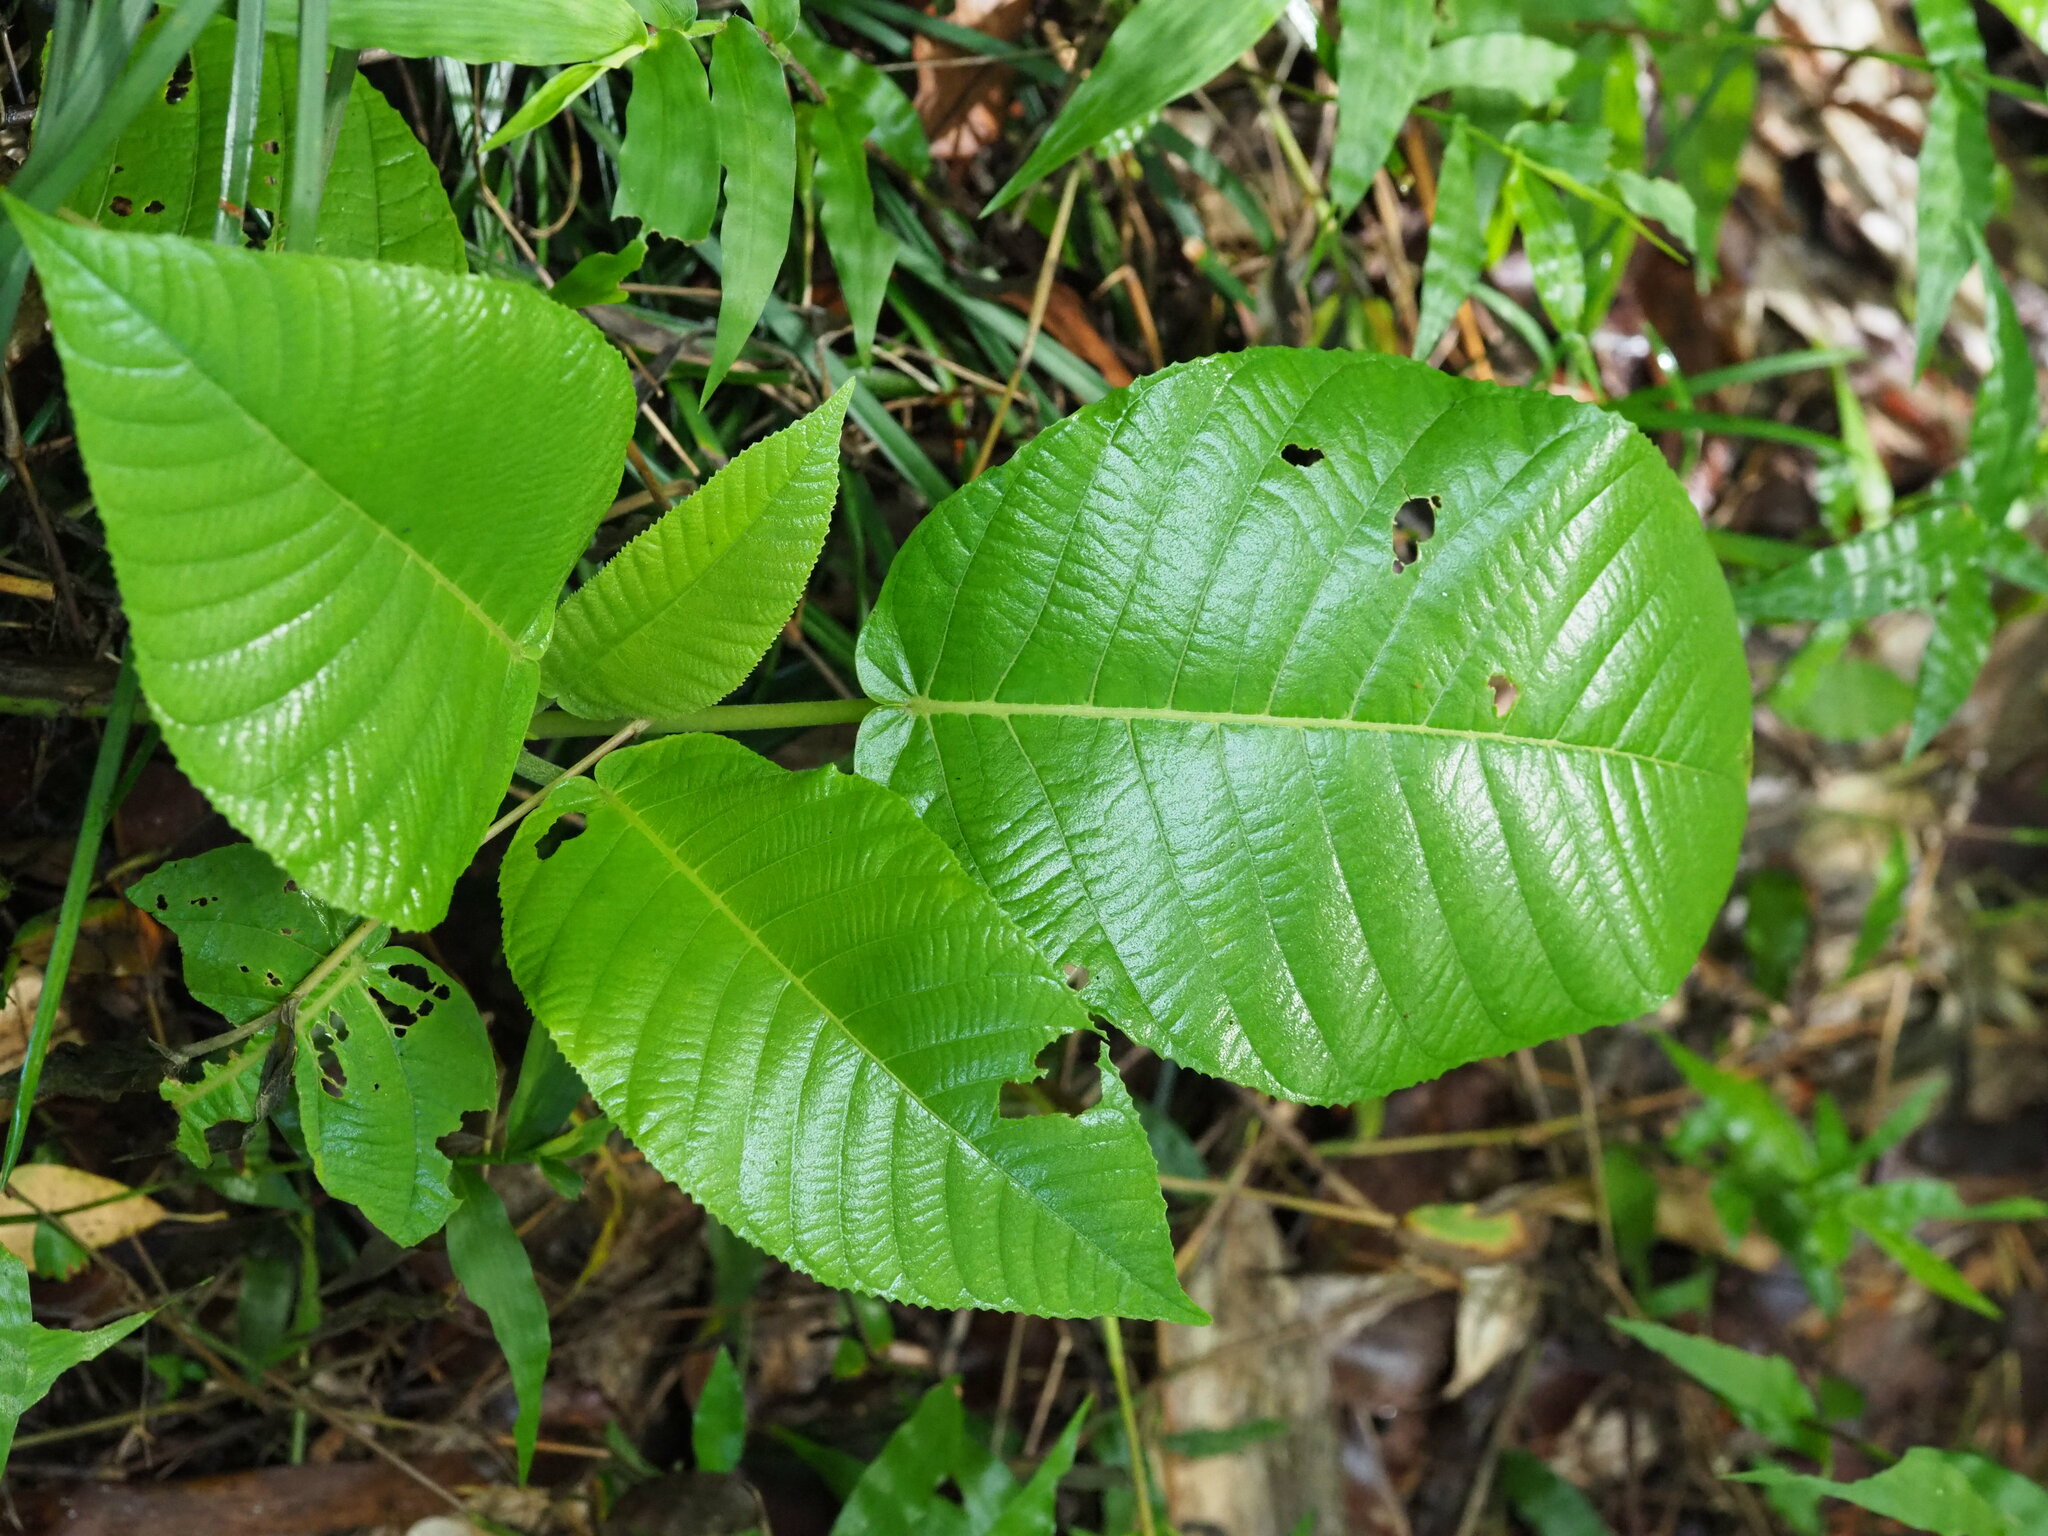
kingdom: Plantae
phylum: Tracheophyta
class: Magnoliopsida
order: Rosales
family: Urticaceae
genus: Dendrocnide
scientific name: Dendrocnide meyeniana
